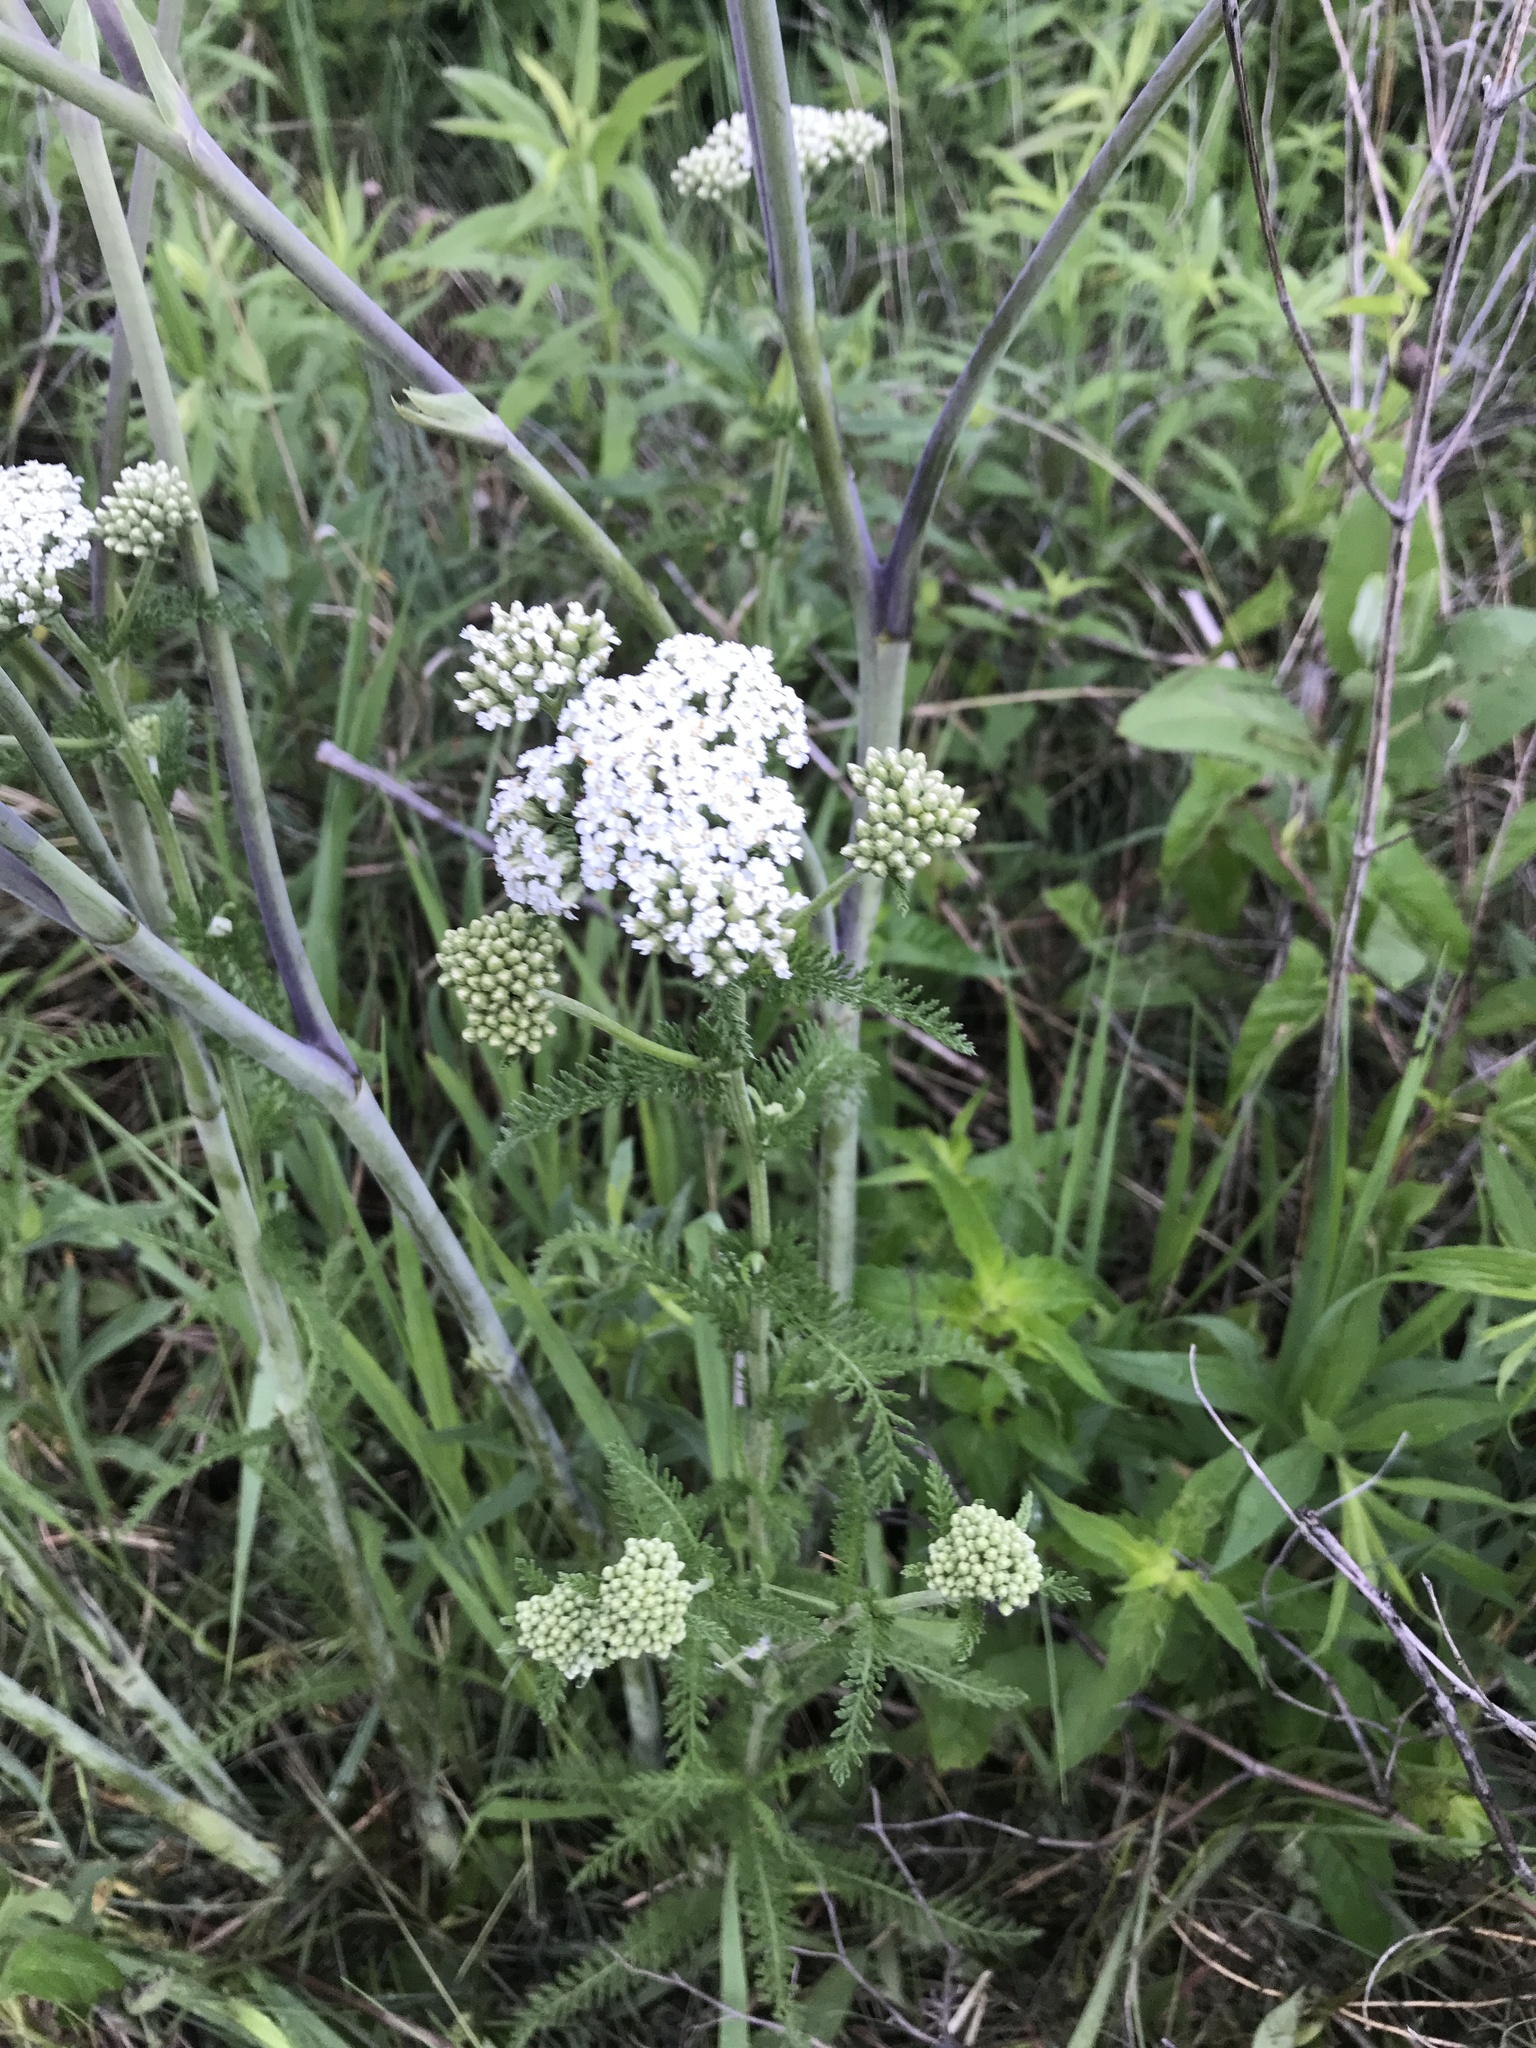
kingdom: Plantae
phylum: Tracheophyta
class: Magnoliopsida
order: Asterales
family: Asteraceae
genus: Achillea
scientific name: Achillea millefolium
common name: Yarrow
